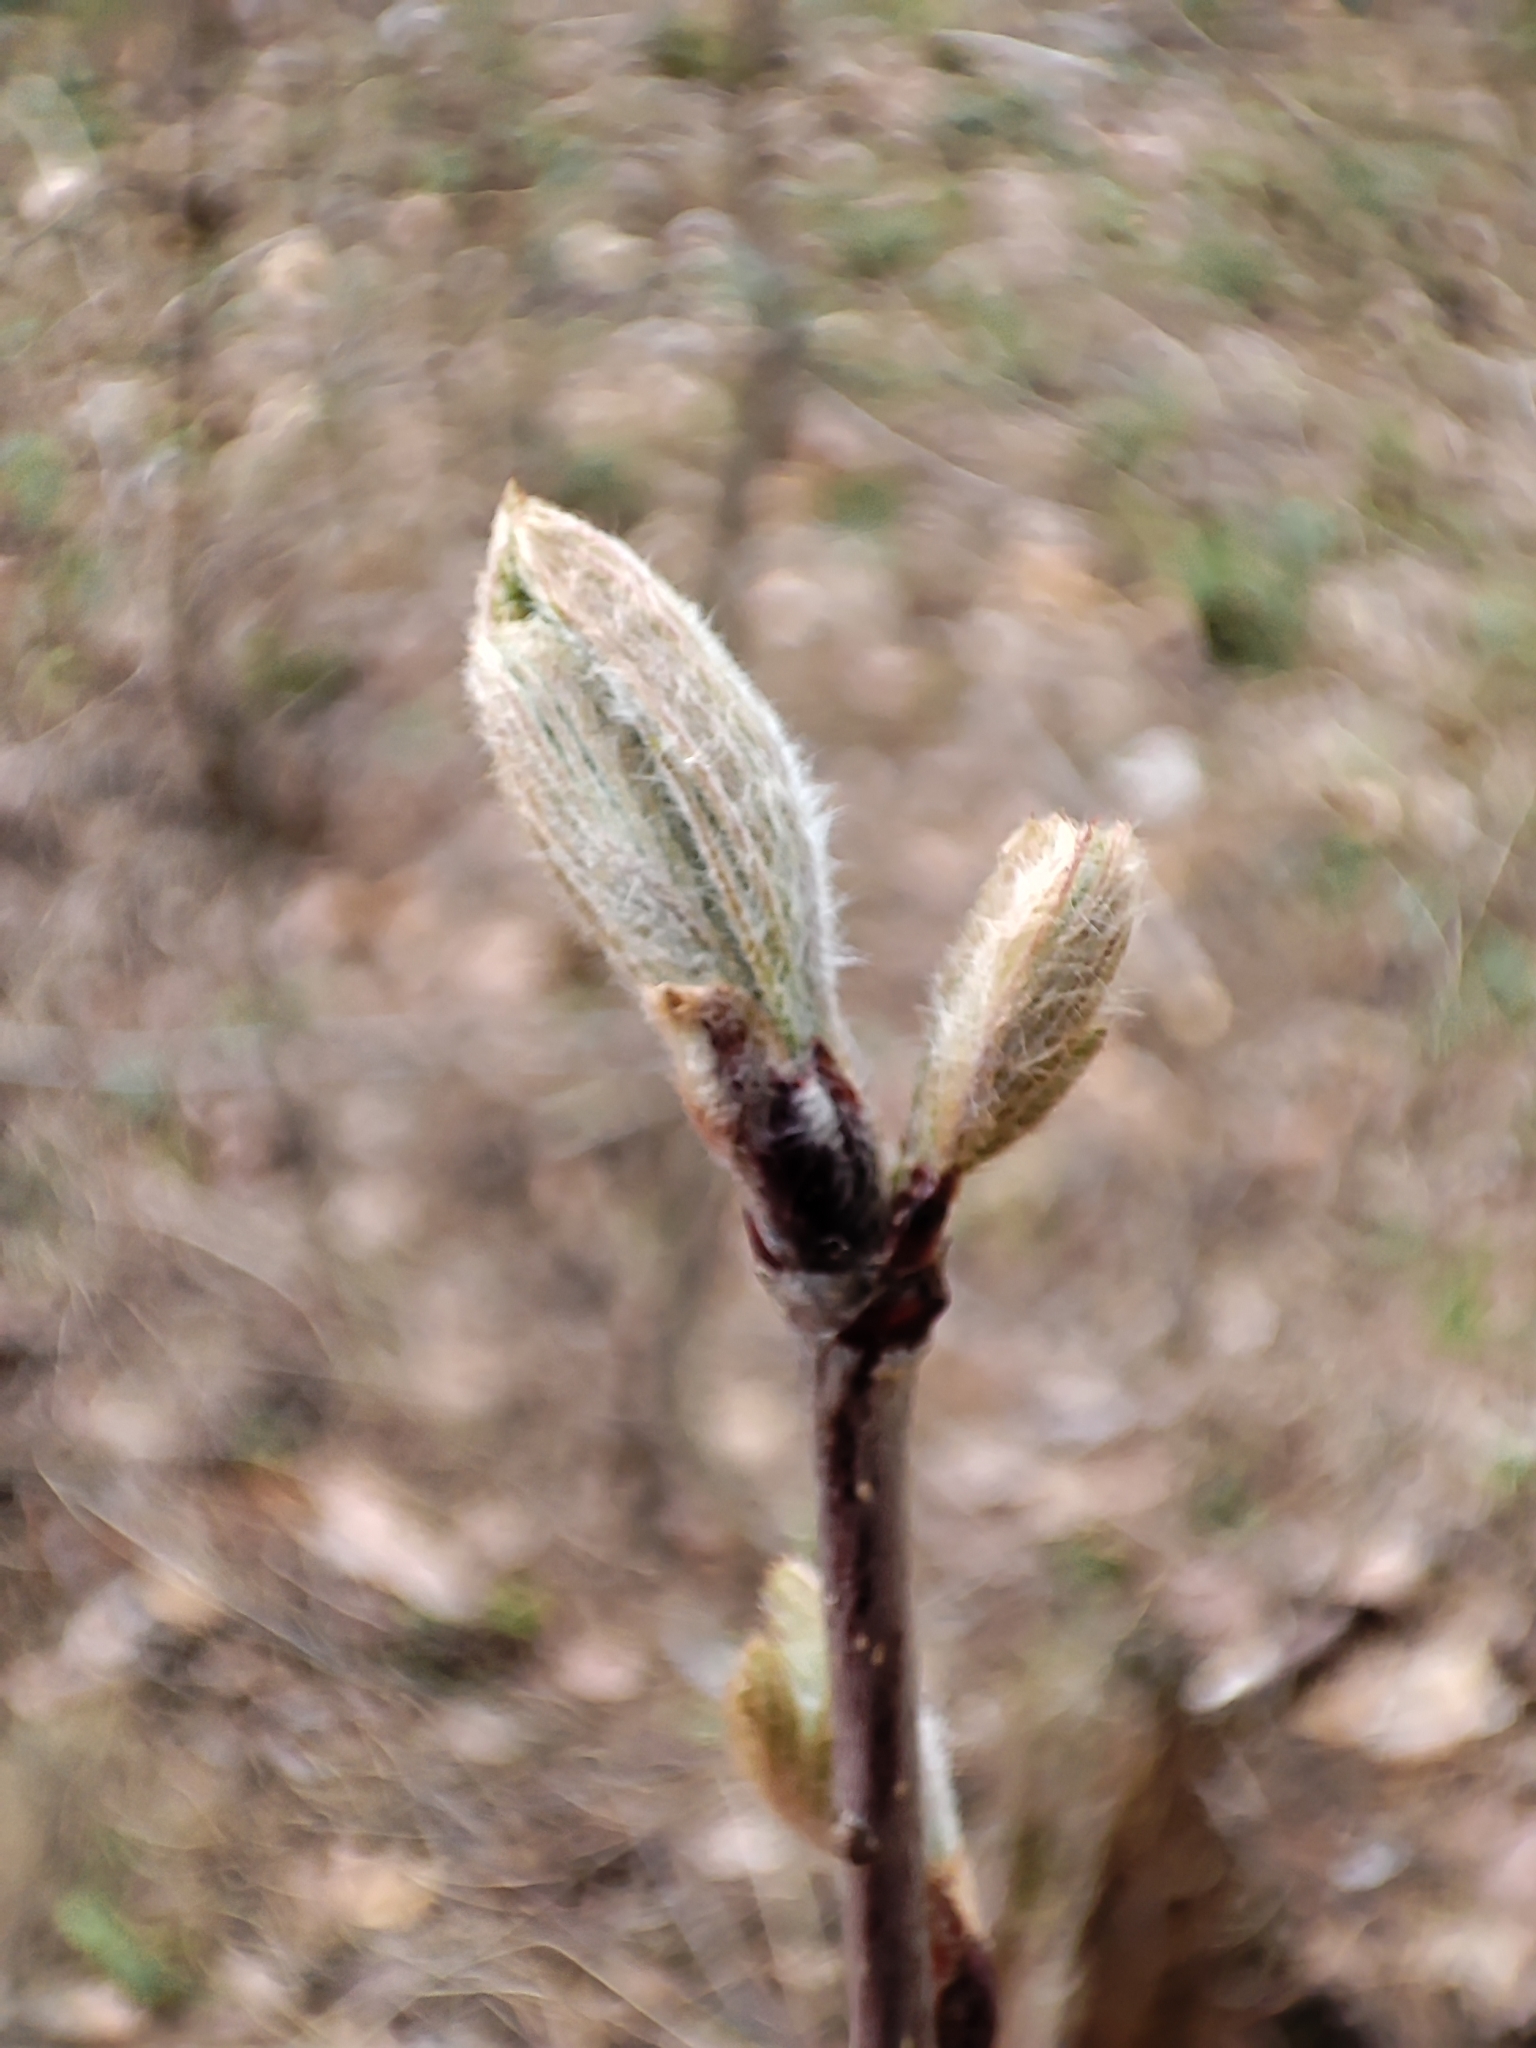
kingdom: Plantae
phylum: Tracheophyta
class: Magnoliopsida
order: Rosales
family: Rosaceae
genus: Sorbus
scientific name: Sorbus aucuparia
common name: Rowan
